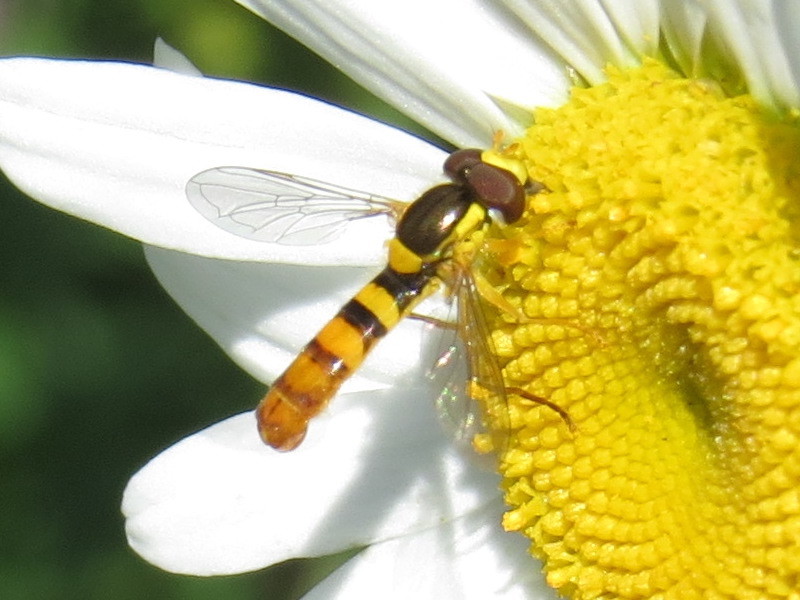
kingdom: Animalia
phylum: Arthropoda
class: Insecta
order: Diptera
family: Syrphidae
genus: Sphaerophoria
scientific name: Sphaerophoria
